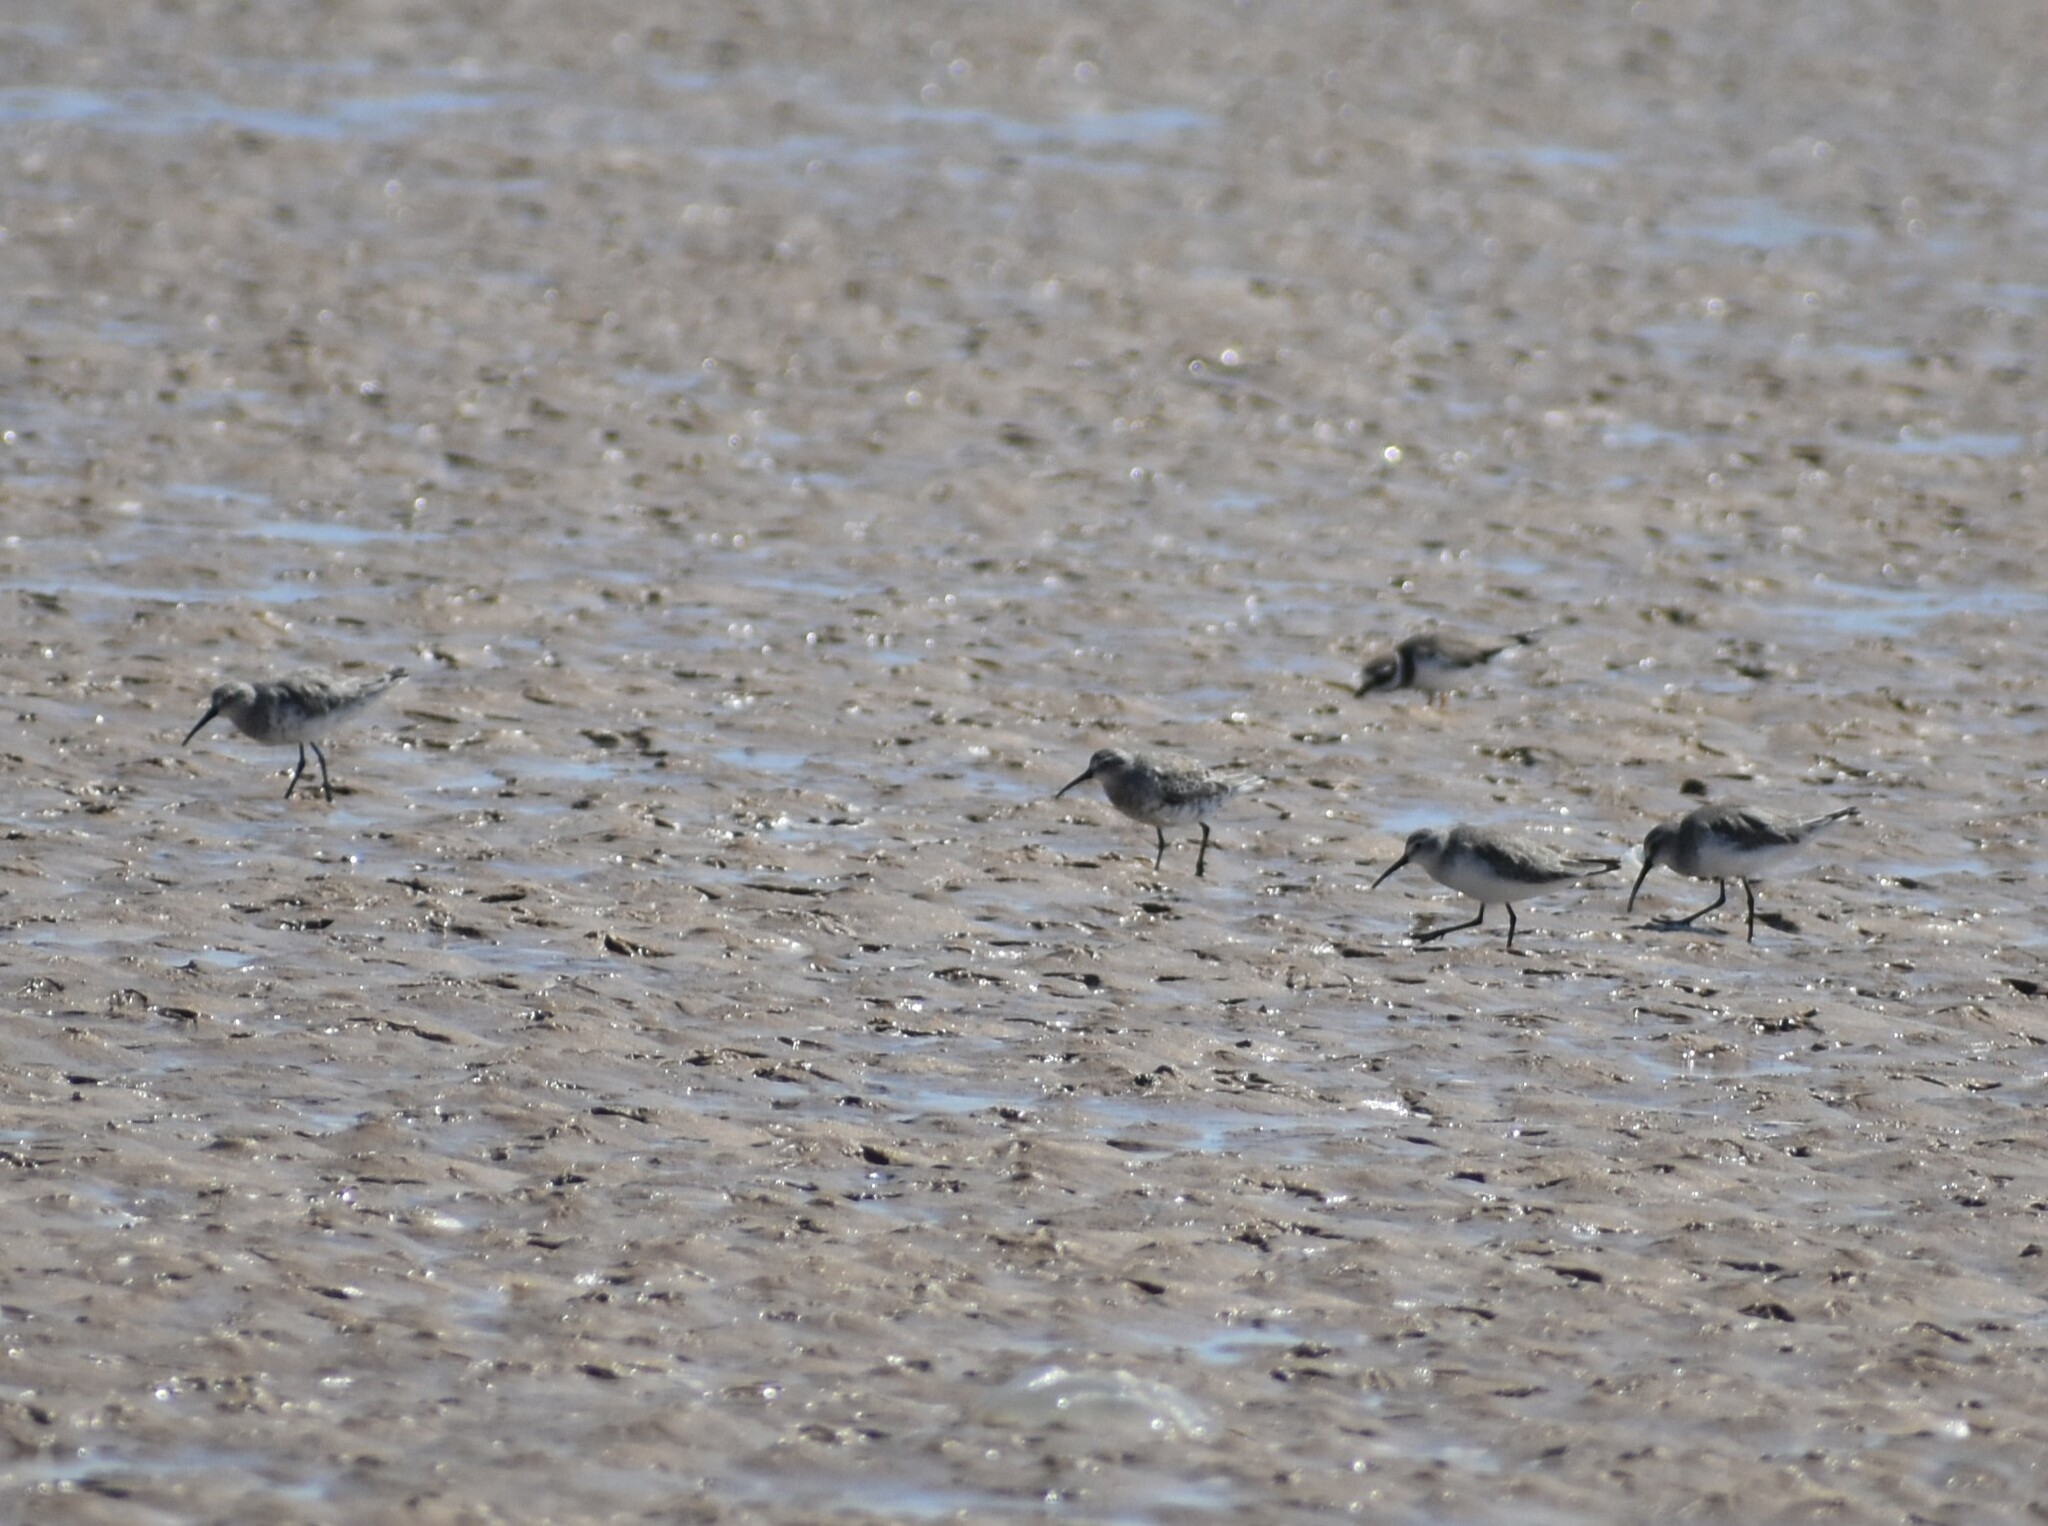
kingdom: Animalia
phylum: Chordata
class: Aves
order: Charadriiformes
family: Scolopacidae
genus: Calidris
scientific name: Calidris ferruginea
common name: Curlew sandpiper
